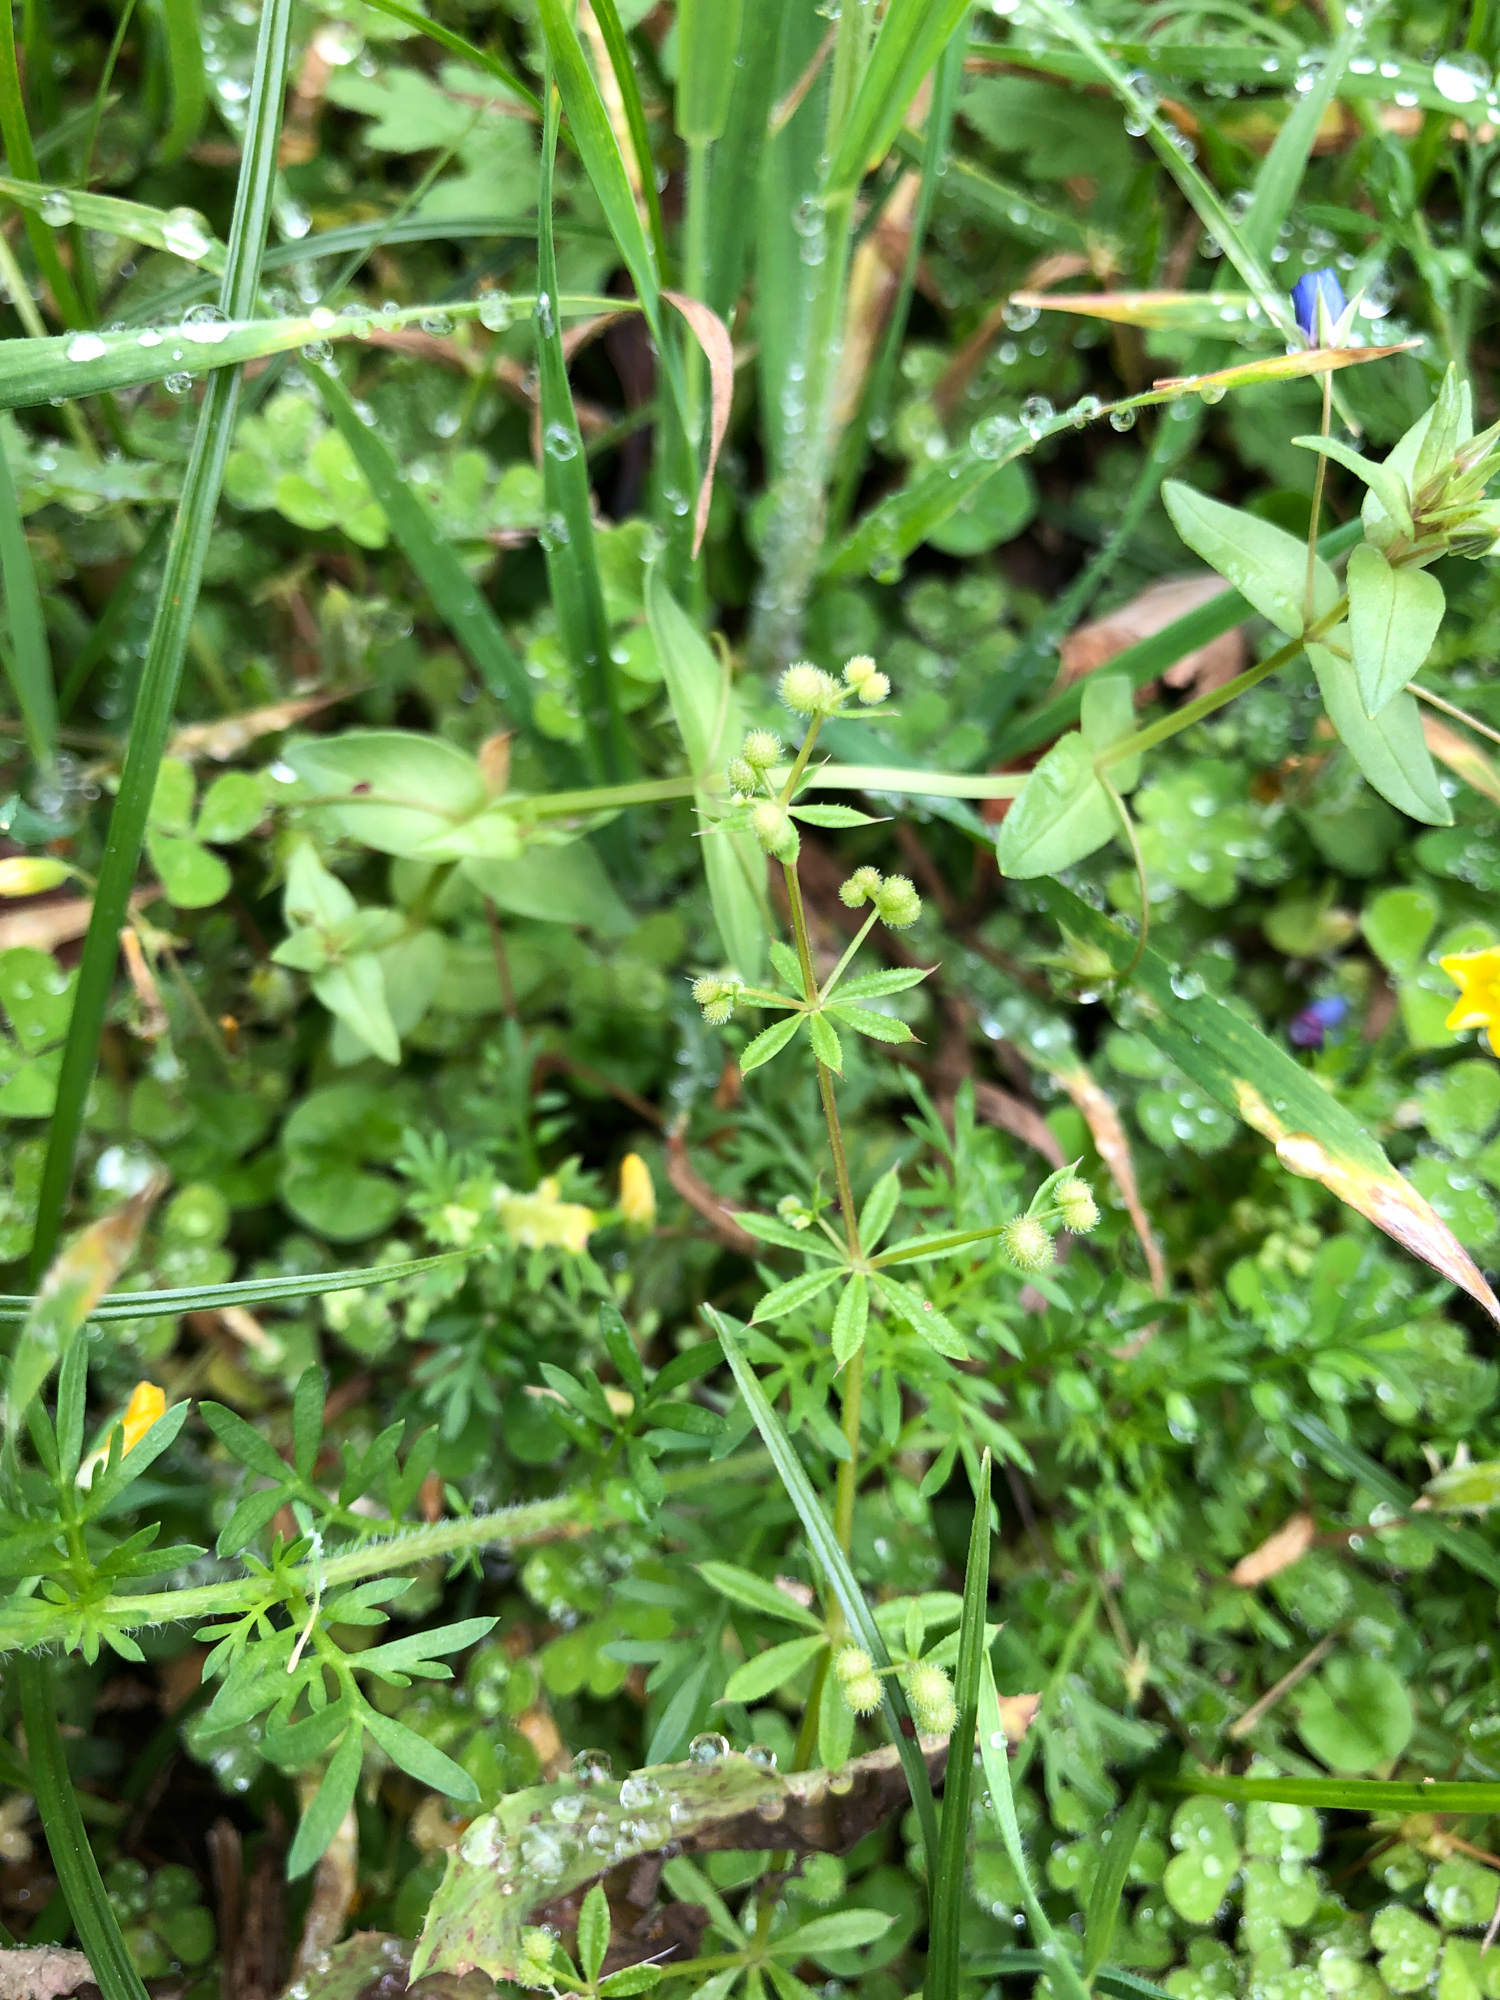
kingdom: Plantae
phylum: Tracheophyta
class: Magnoliopsida
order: Gentianales
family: Rubiaceae
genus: Galium
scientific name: Galium spurium
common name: False cleavers
